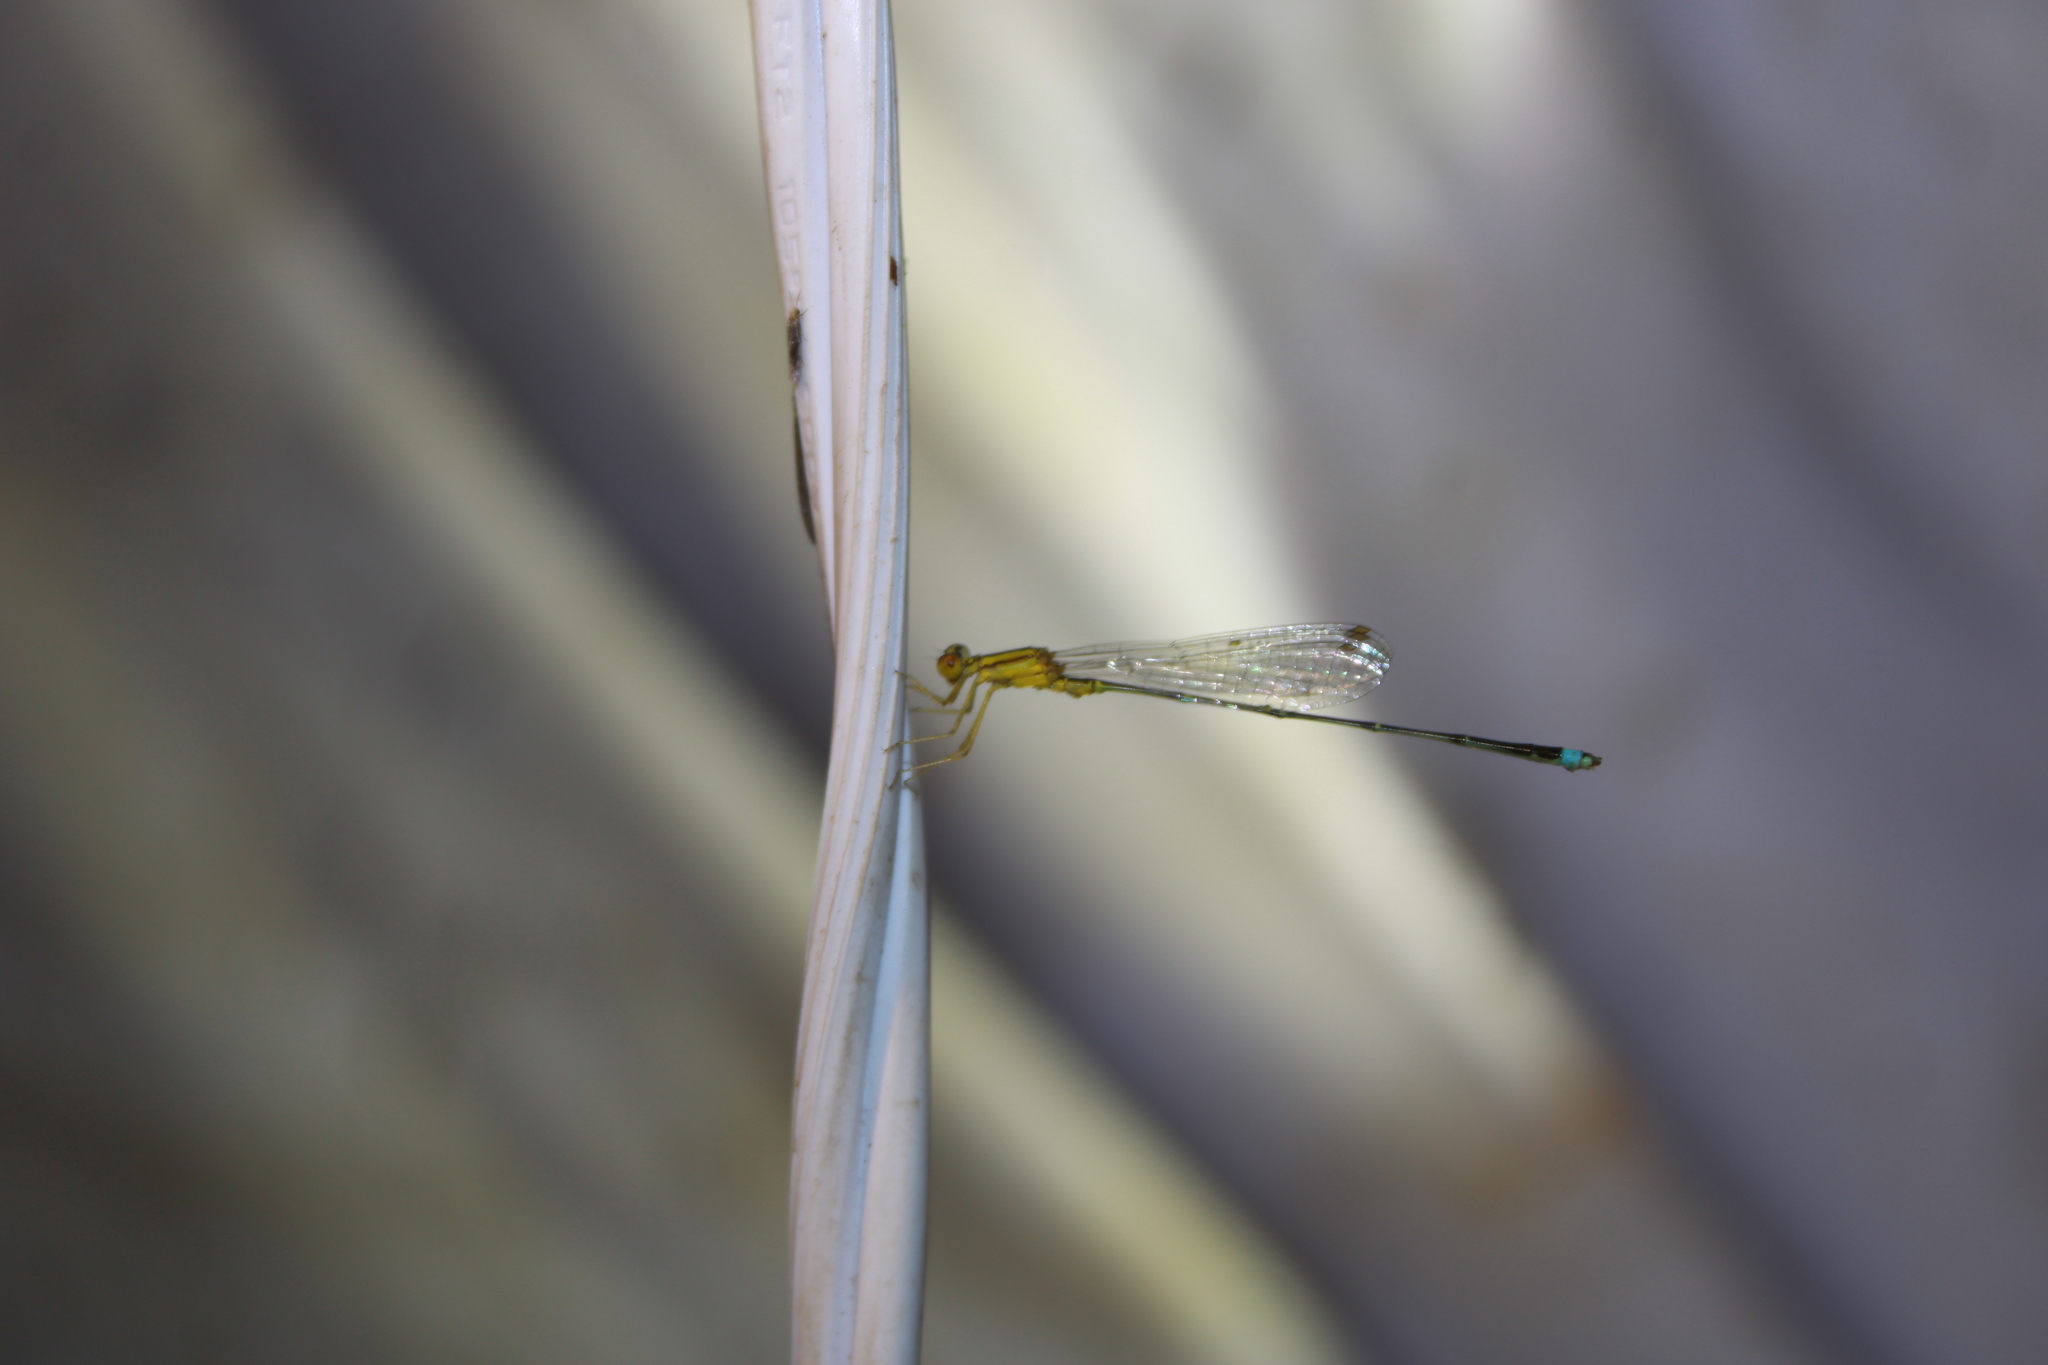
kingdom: Animalia
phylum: Arthropoda
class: Insecta
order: Odonata
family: Coenagrionidae
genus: Enallagma
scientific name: Enallagma vesperum
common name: Vesper bluet
